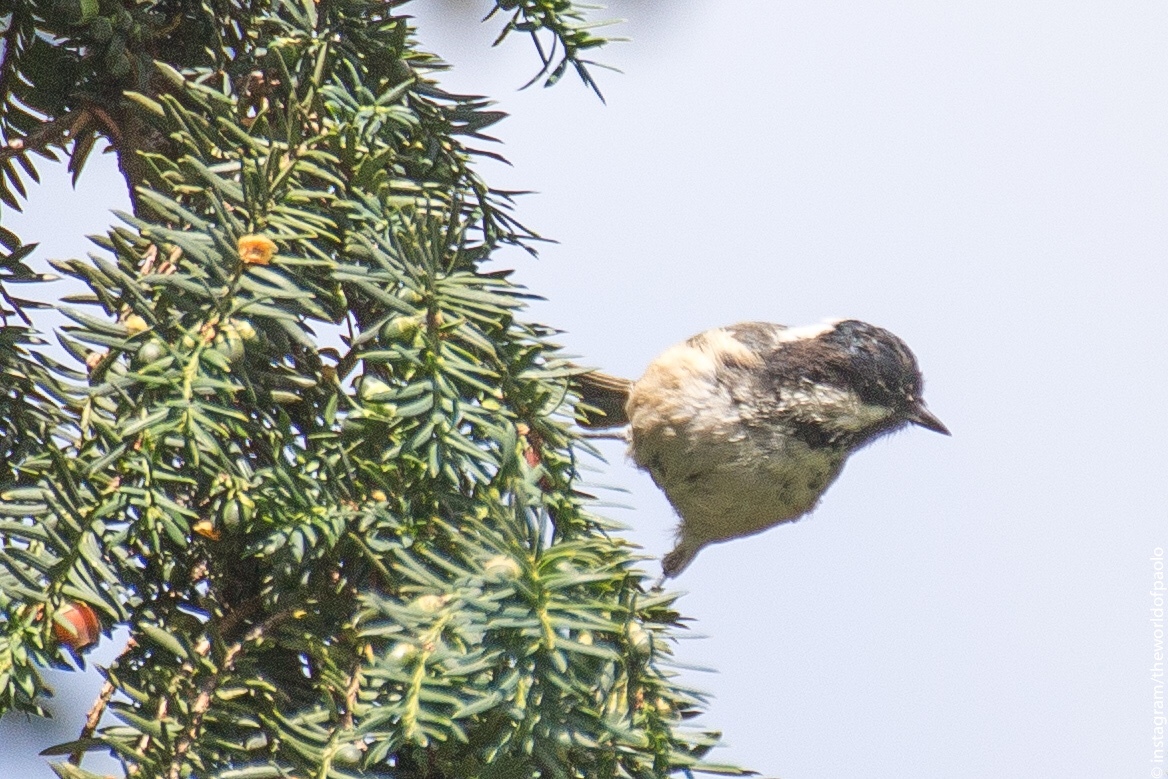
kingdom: Animalia
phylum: Chordata
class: Aves
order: Passeriformes
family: Paridae
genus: Periparus
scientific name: Periparus ater
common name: Coal tit
